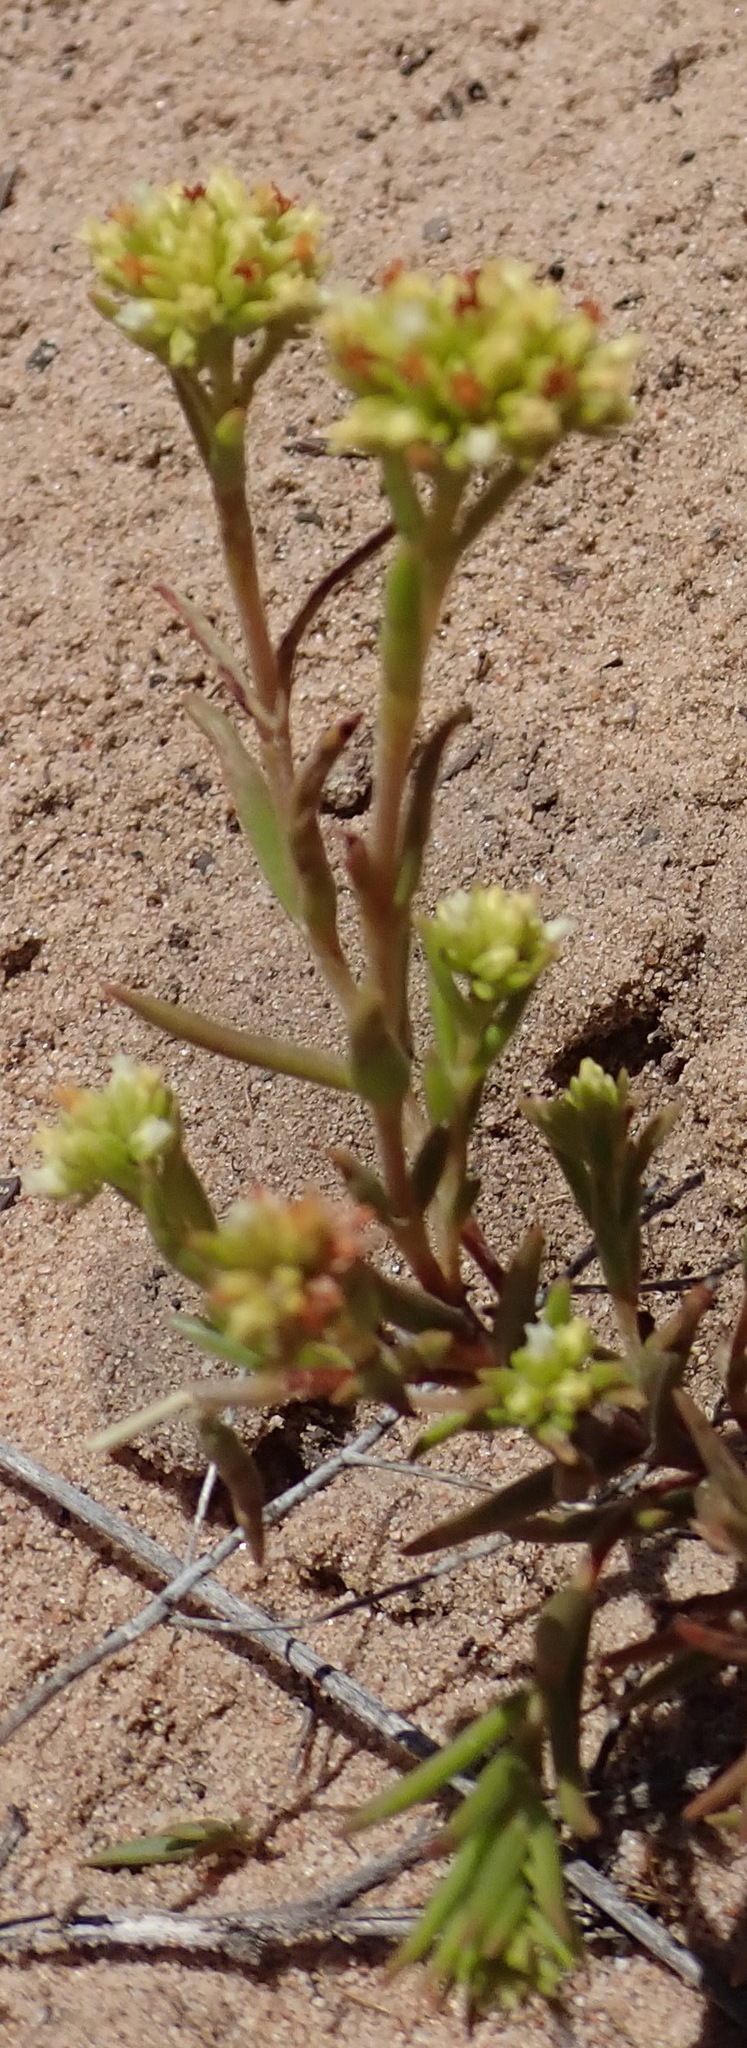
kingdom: Plantae
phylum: Tracheophyta
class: Magnoliopsida
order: Saxifragales
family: Crassulaceae
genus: Crassula
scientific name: Crassula subulata
